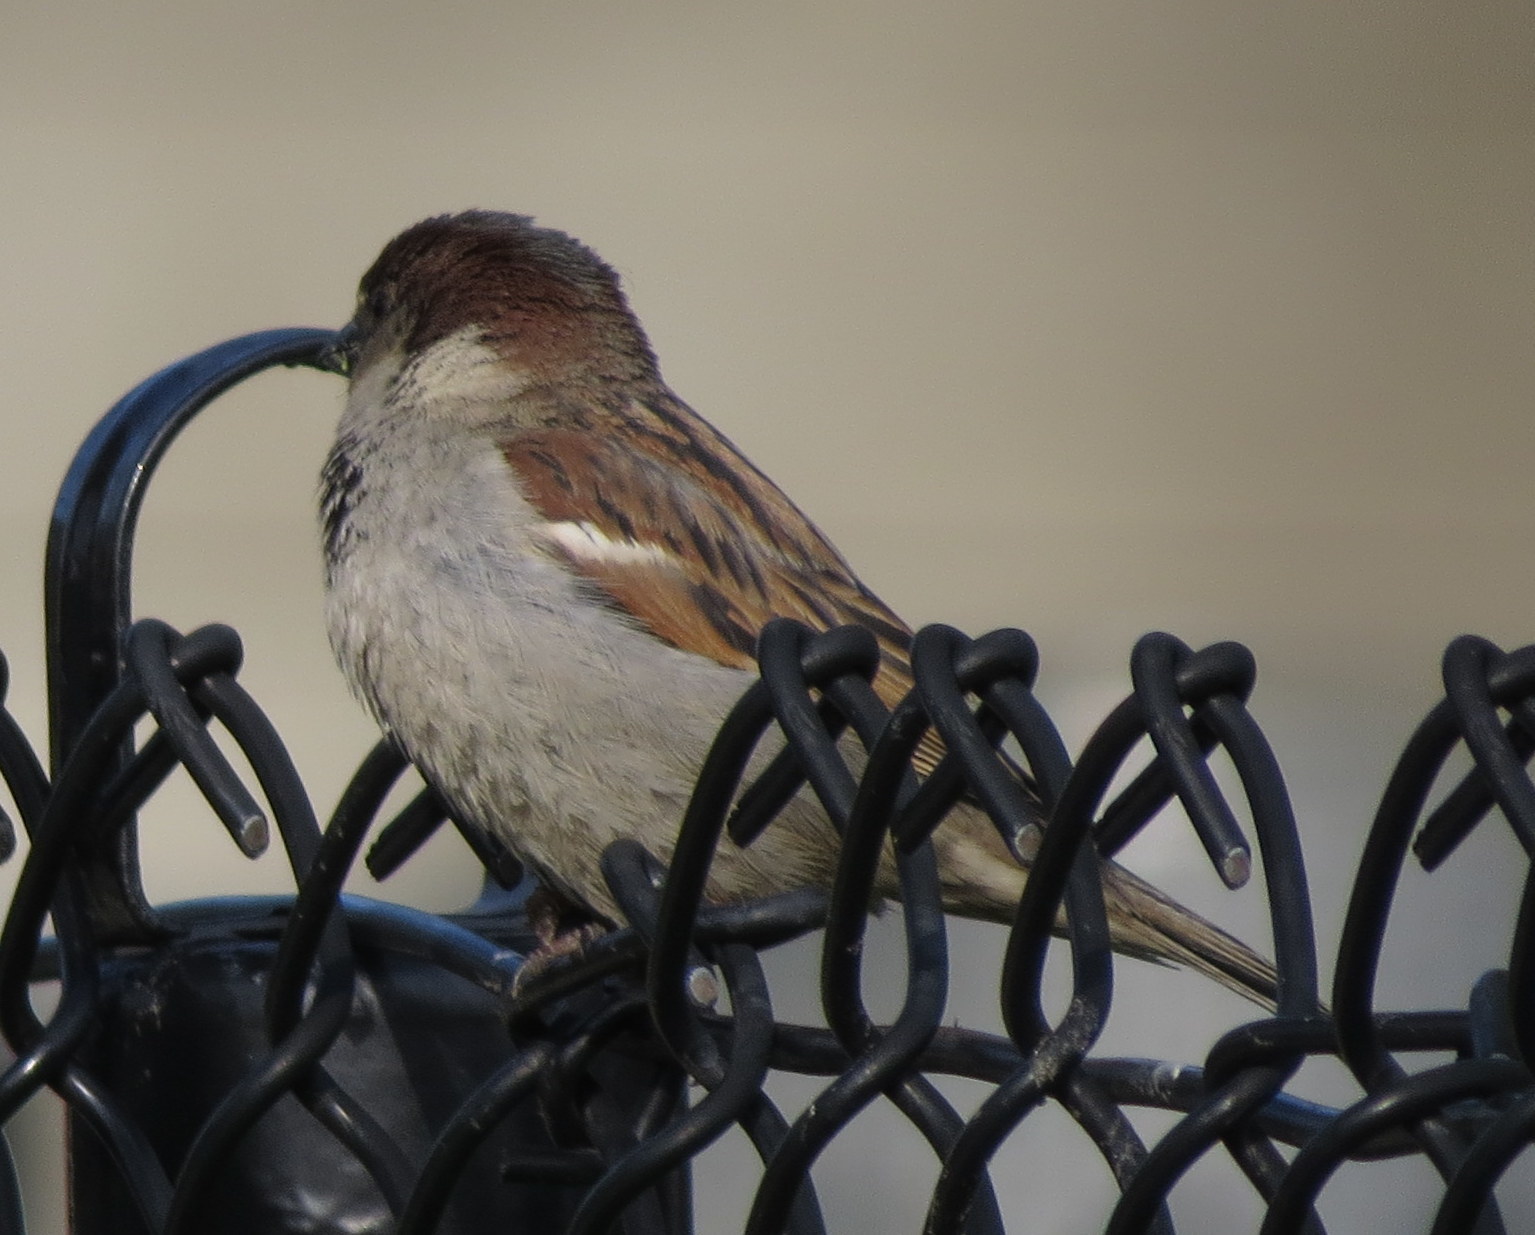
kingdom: Animalia
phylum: Chordata
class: Aves
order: Passeriformes
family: Passeridae
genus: Passer
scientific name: Passer domesticus
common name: House sparrow
